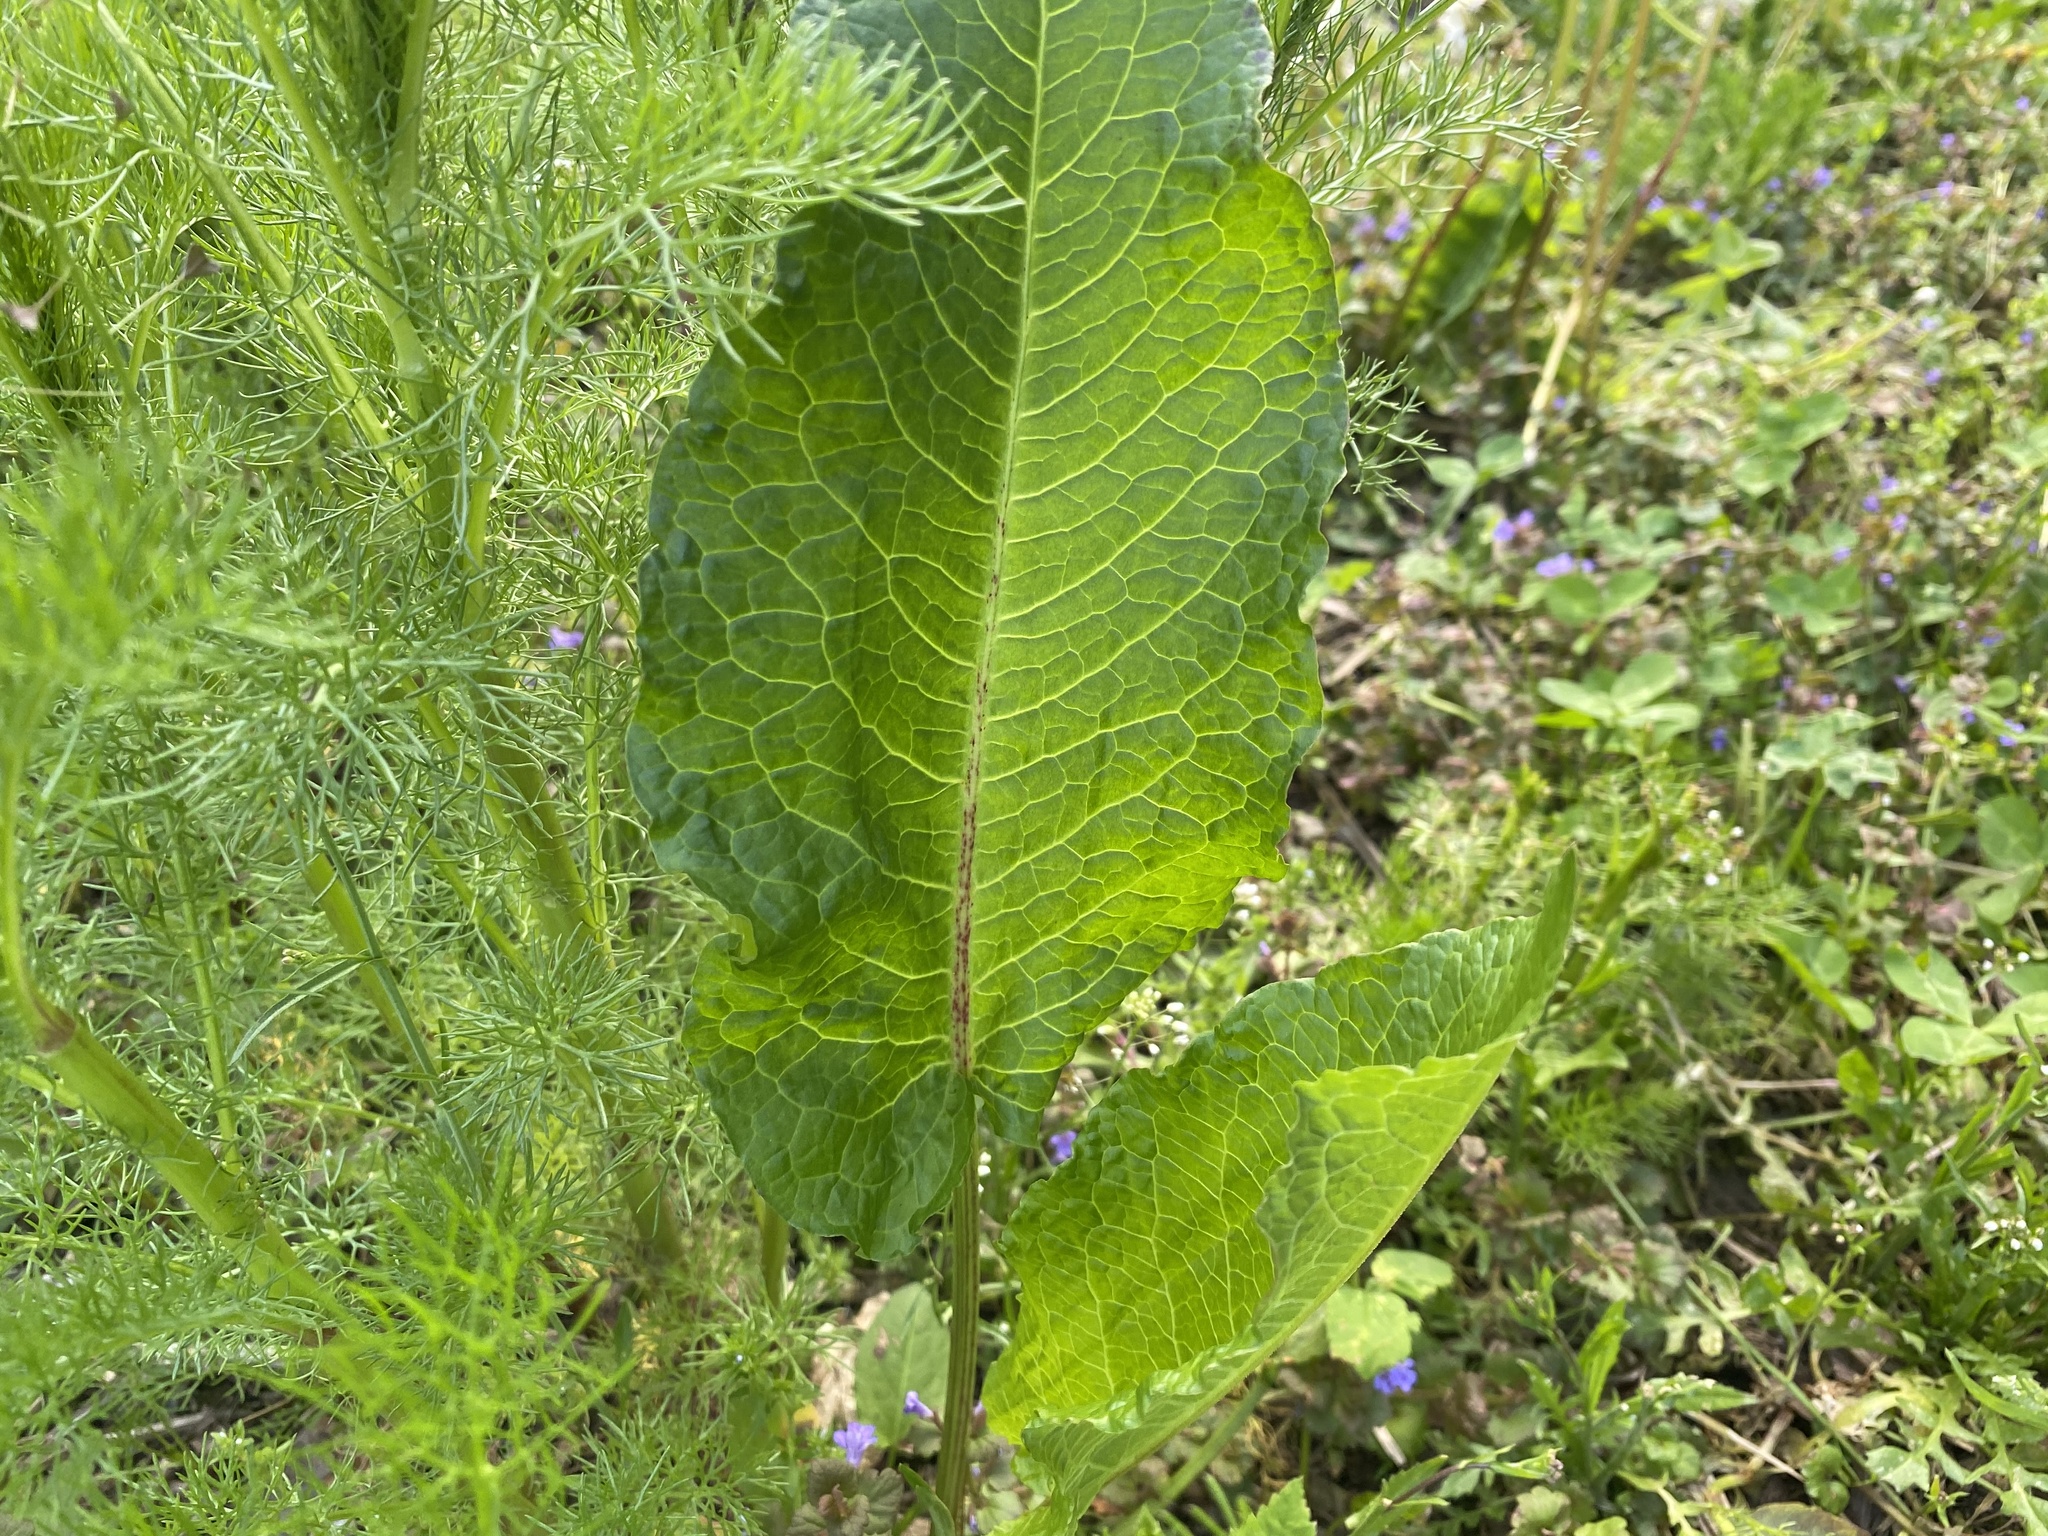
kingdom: Plantae
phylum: Tracheophyta
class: Magnoliopsida
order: Caryophyllales
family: Polygonaceae
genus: Rumex
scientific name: Rumex obtusifolius
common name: Bitter dock
